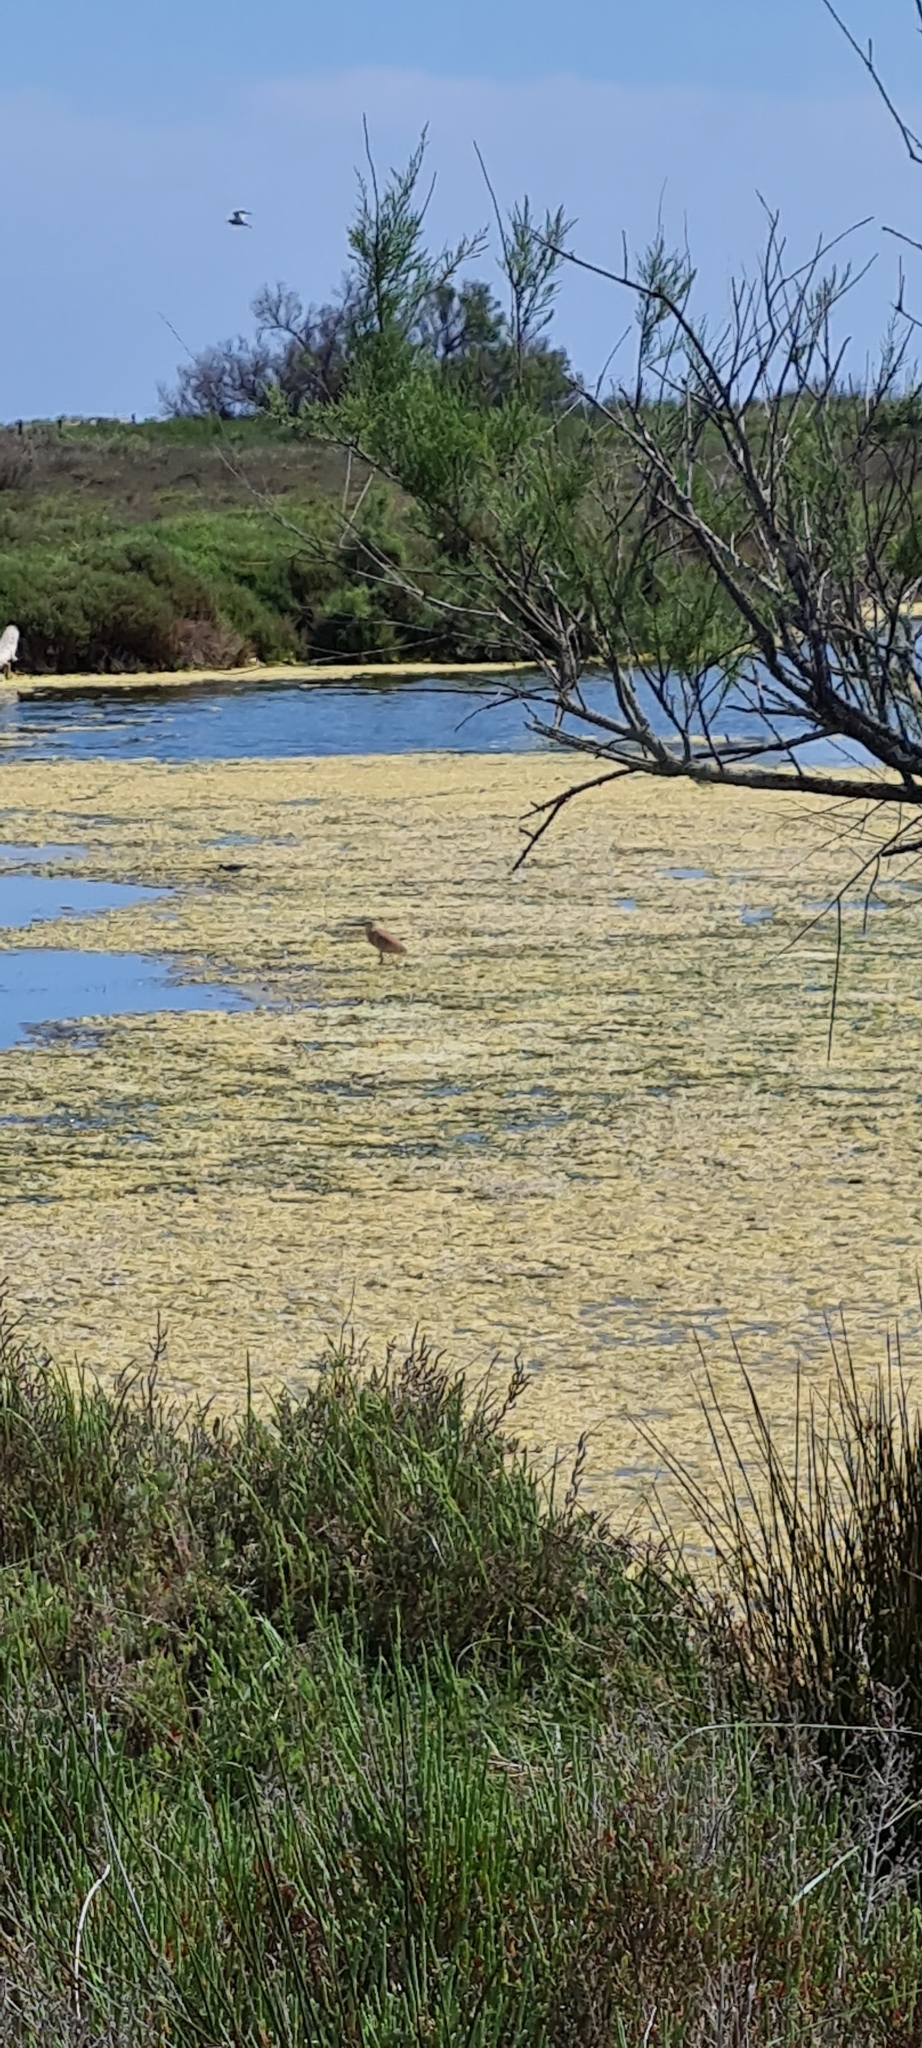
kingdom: Animalia
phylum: Chordata
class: Aves
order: Pelecaniformes
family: Ardeidae
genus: Ardeola
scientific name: Ardeola ralloides
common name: Squacco heron
